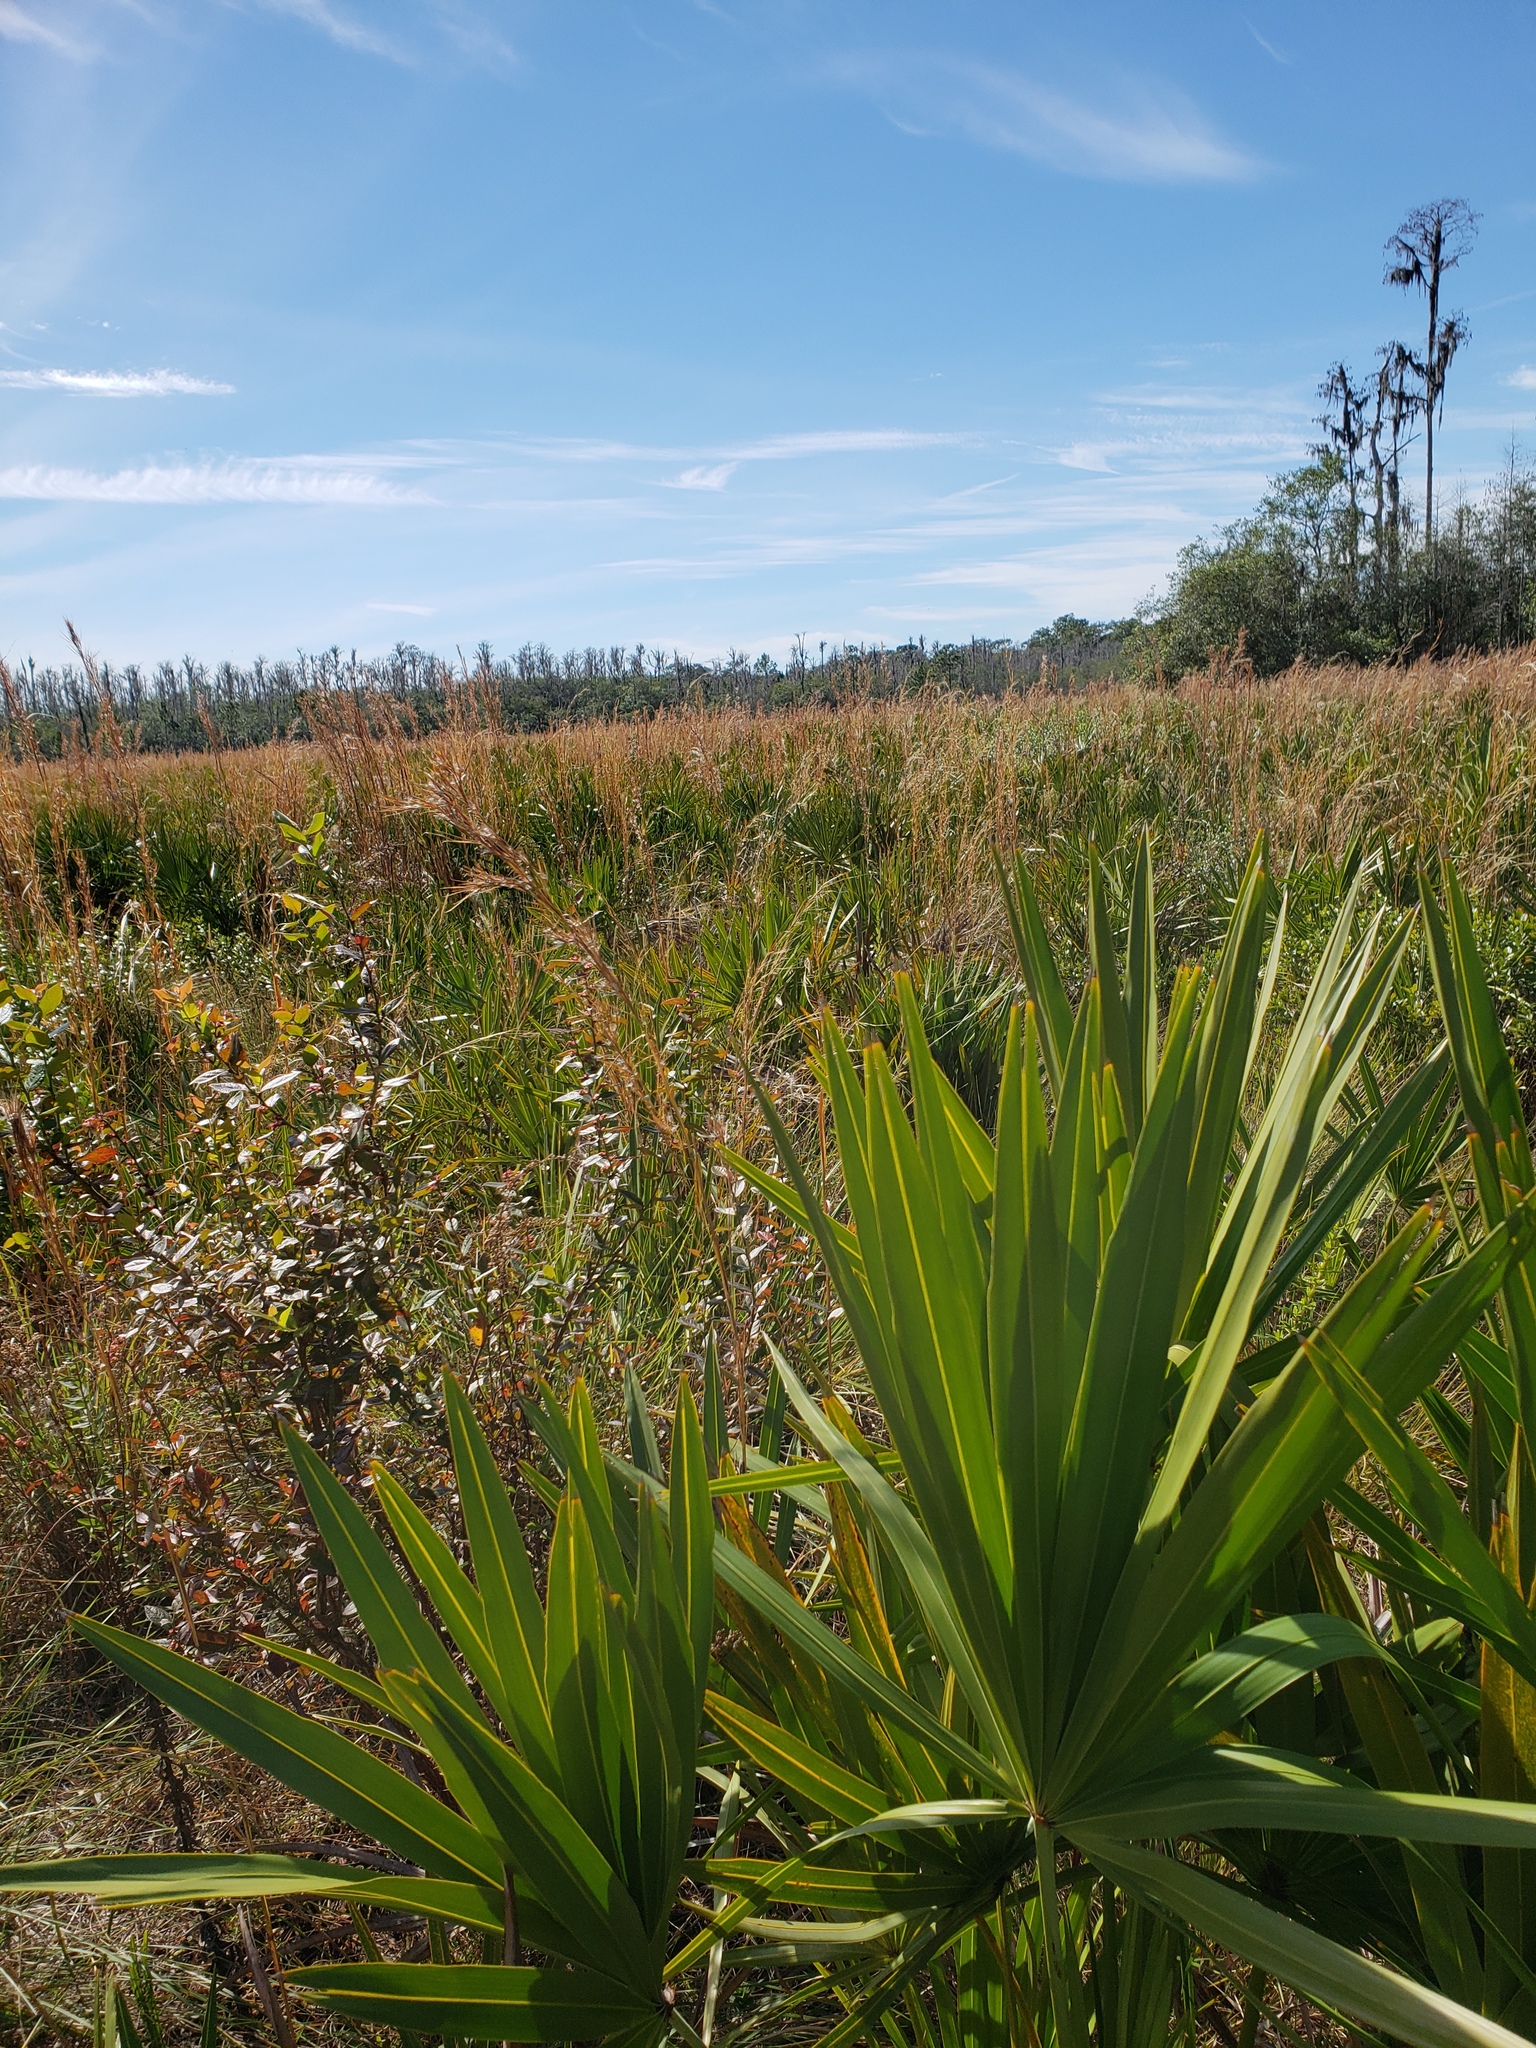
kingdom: Animalia
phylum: Arthropoda
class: Insecta
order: Mantodea
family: Mantidae
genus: Stagmomantis
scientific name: Stagmomantis floridensis
